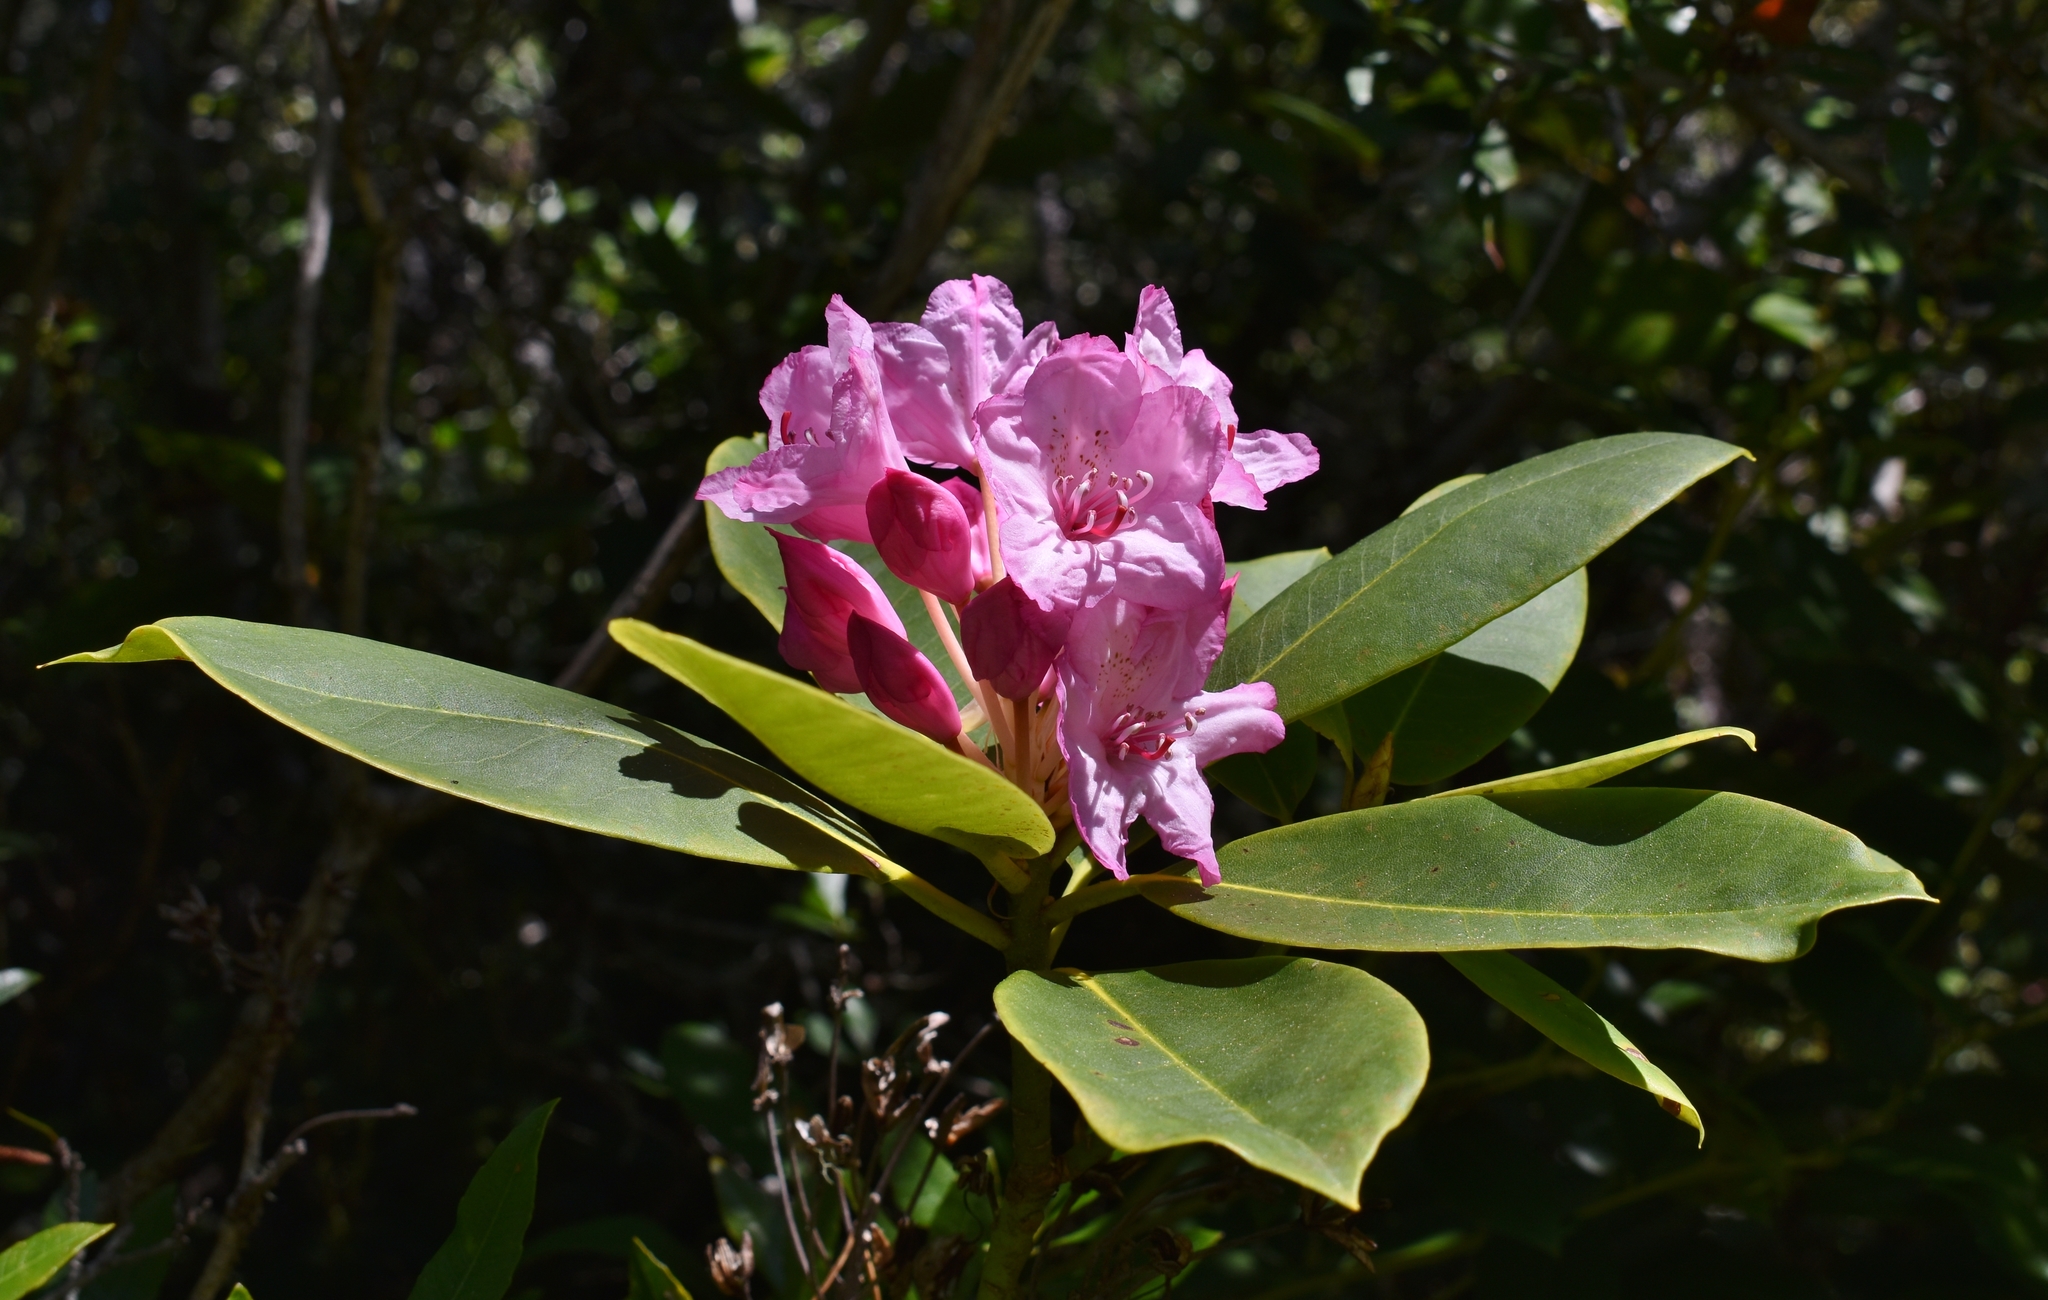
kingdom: Plantae
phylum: Tracheophyta
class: Magnoliopsida
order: Ericales
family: Ericaceae
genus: Rhododendron
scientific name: Rhododendron macrophyllum
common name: California rose bay
